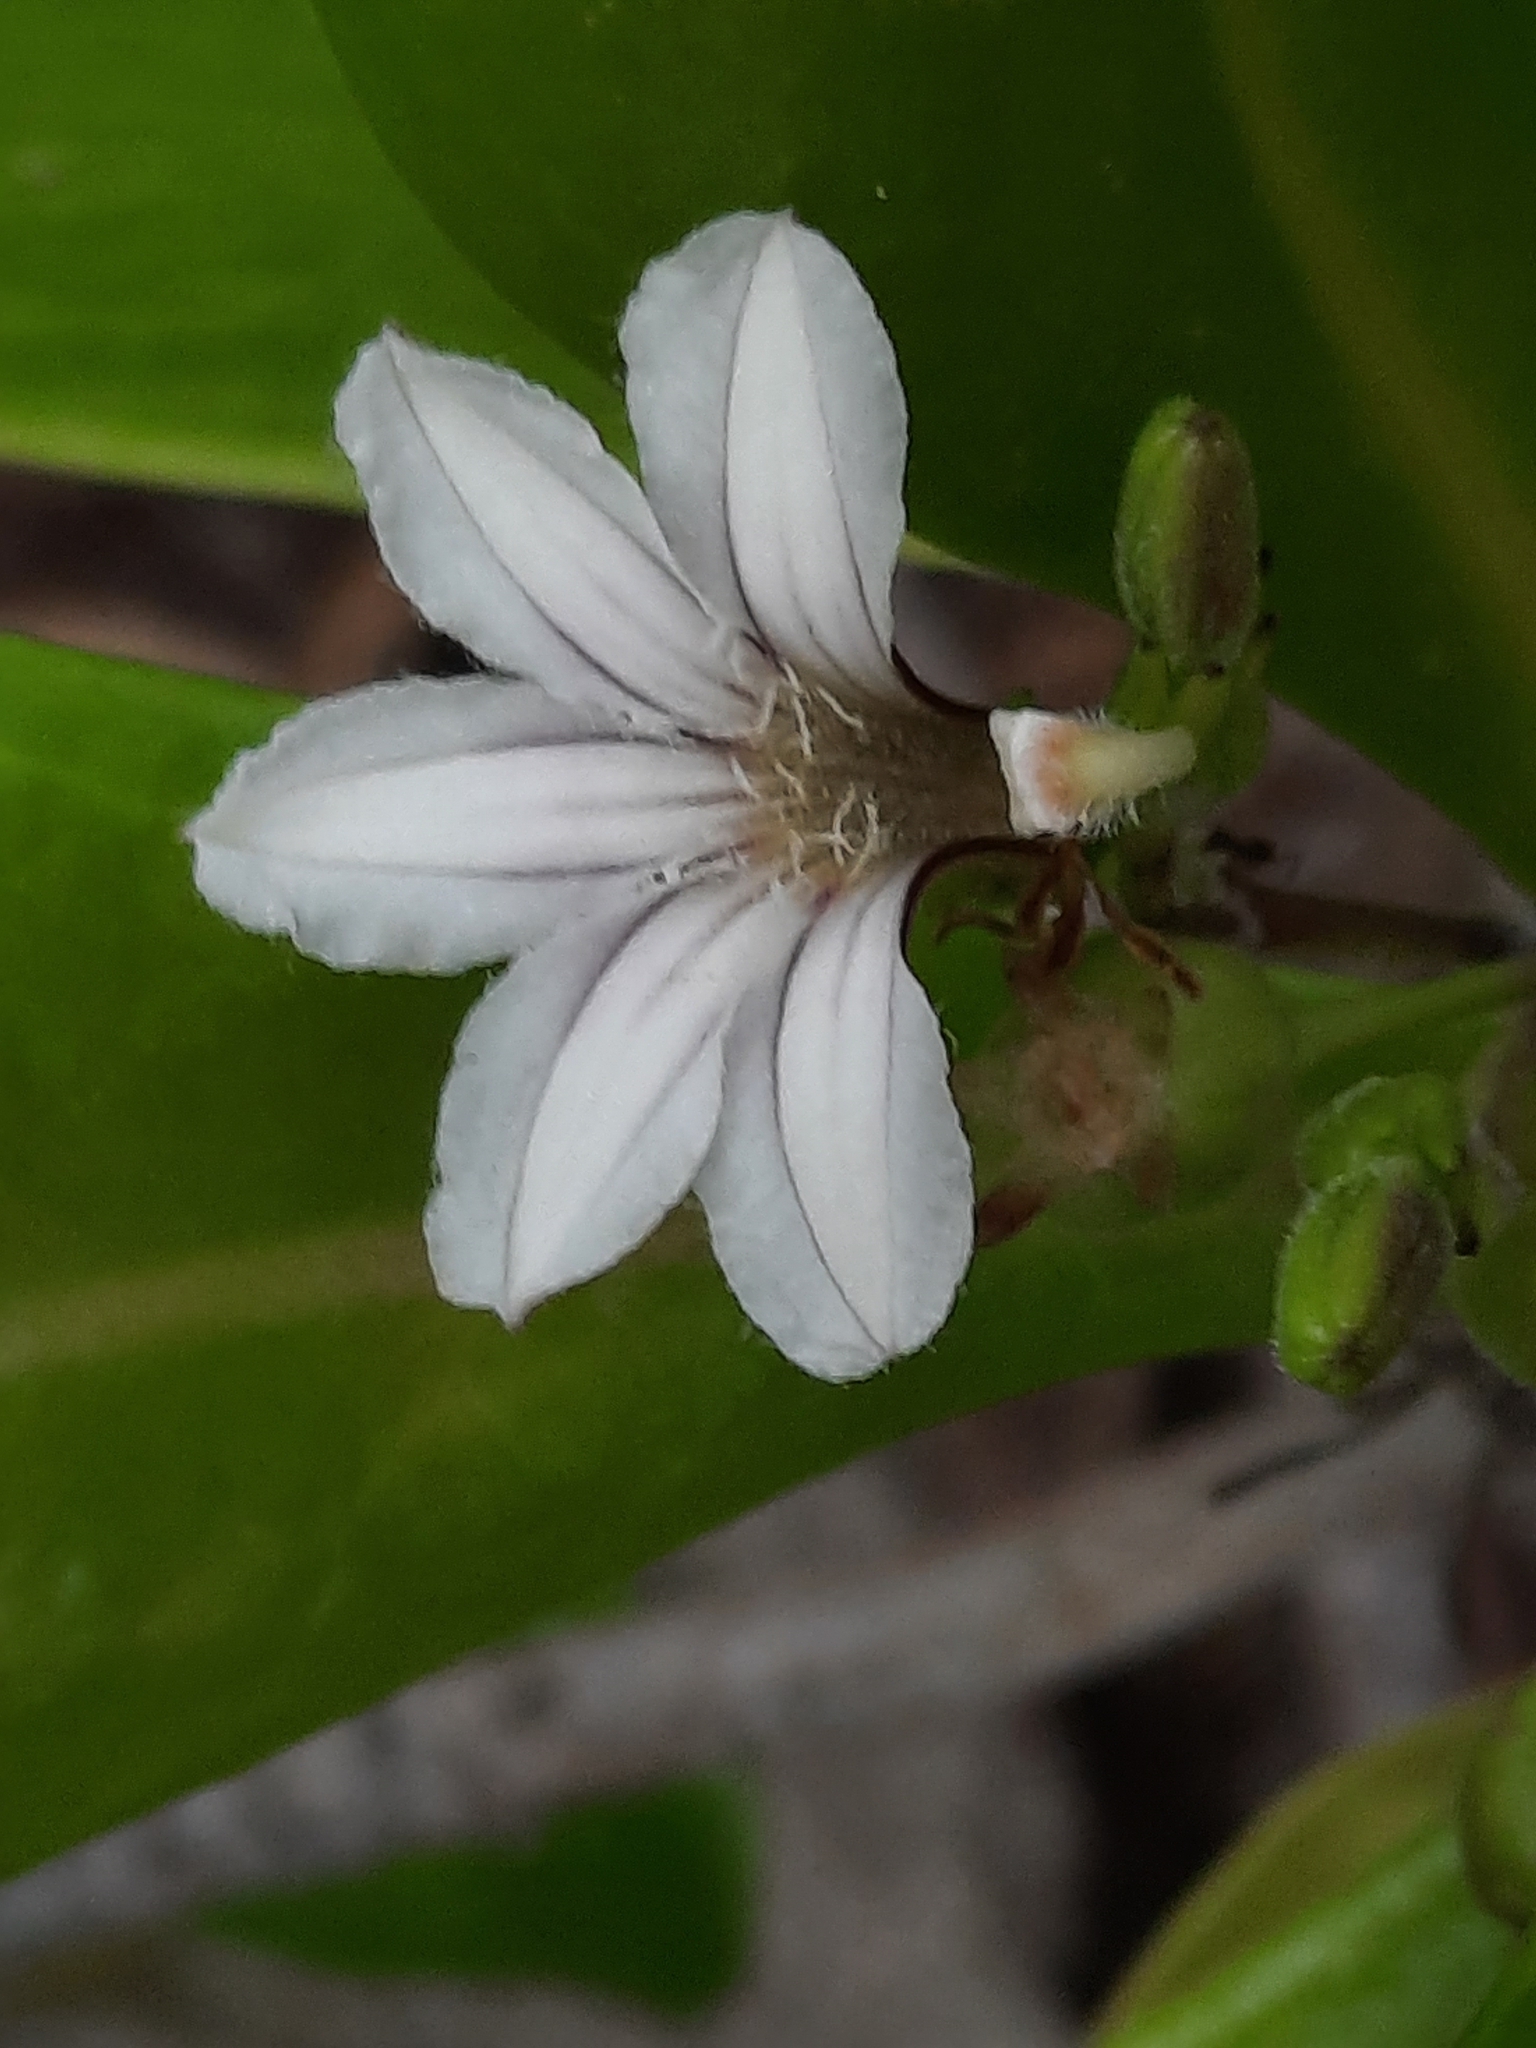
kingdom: Plantae
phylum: Tracheophyta
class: Magnoliopsida
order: Asterales
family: Goodeniaceae
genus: Scaevola
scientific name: Scaevola taccada
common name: Sea lettucetree
